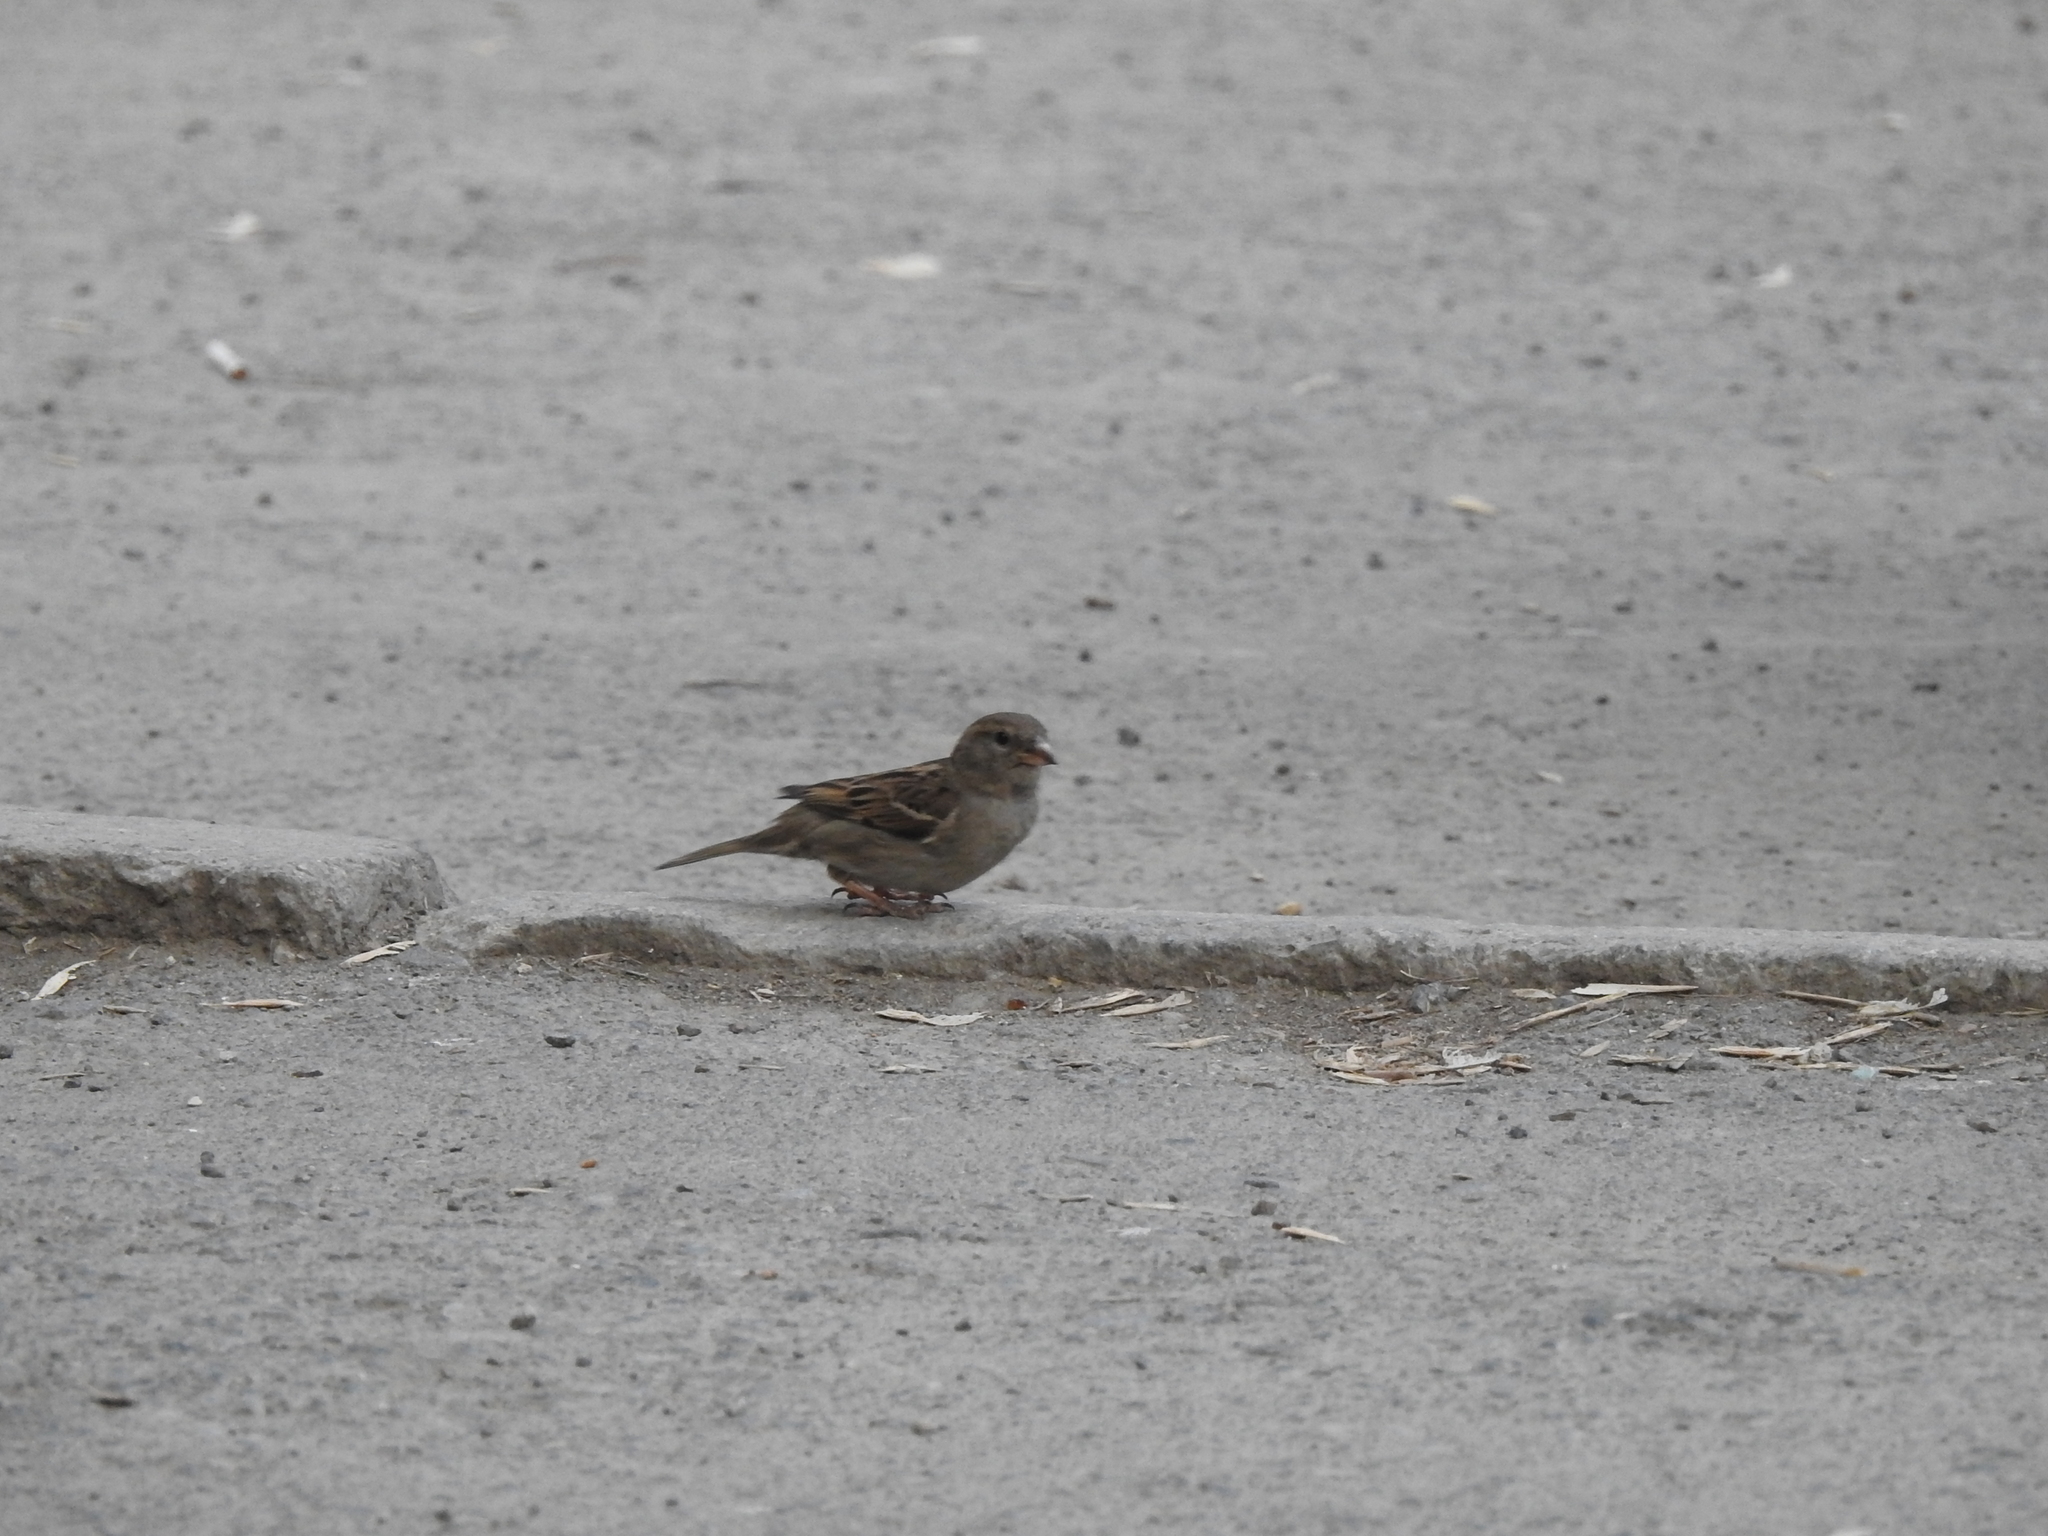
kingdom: Animalia
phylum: Chordata
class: Aves
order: Passeriformes
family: Passeridae
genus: Passer
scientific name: Passer domesticus
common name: House sparrow
